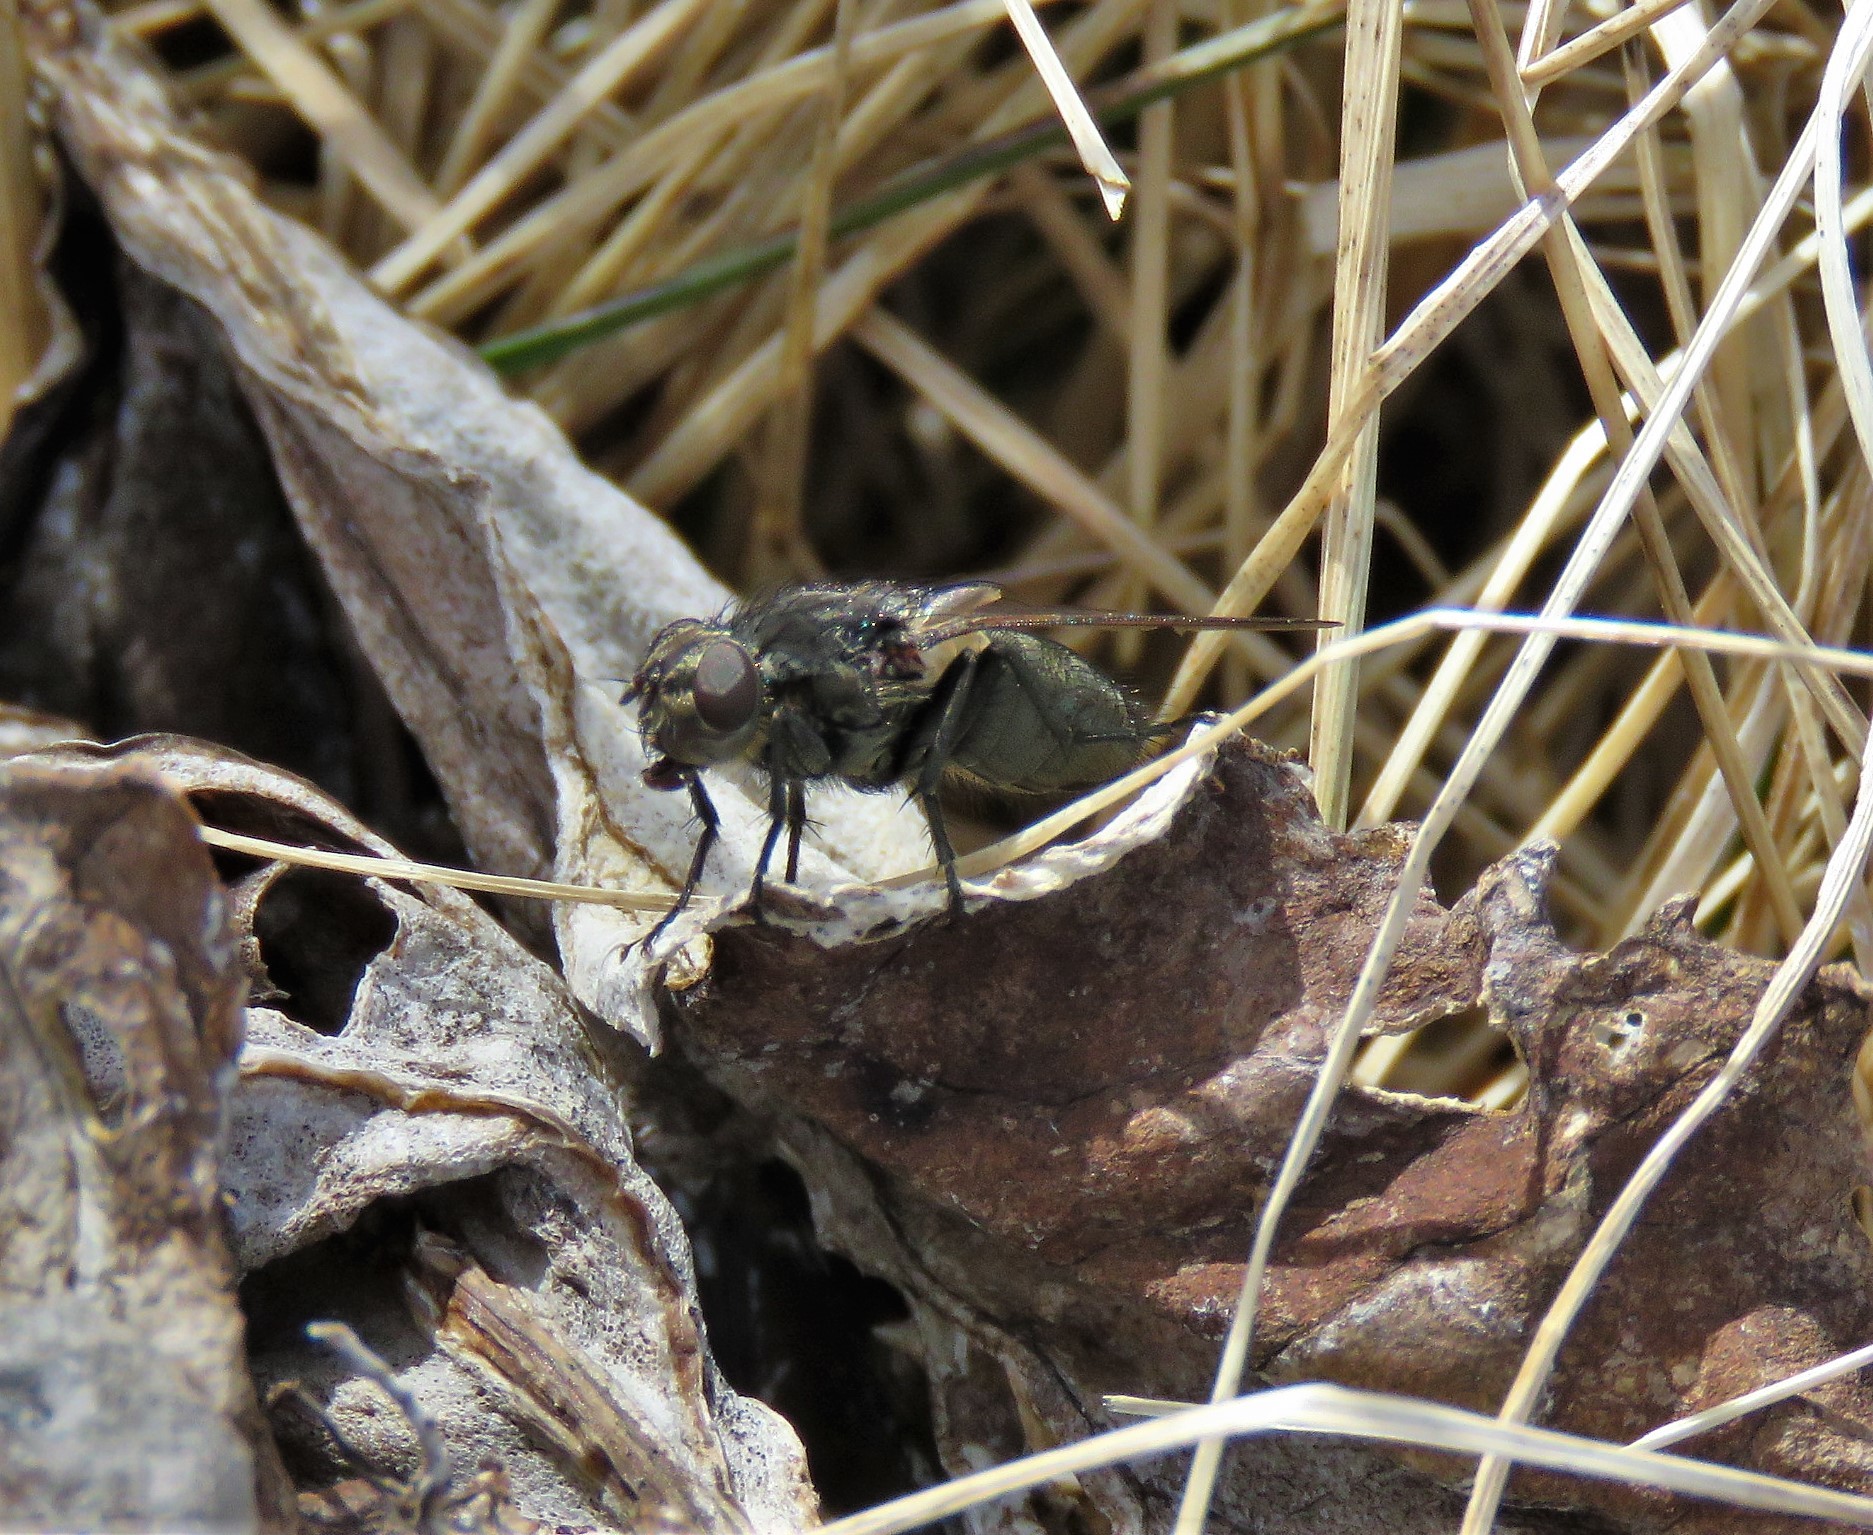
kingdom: Animalia
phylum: Arthropoda
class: Insecta
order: Diptera
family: Polleniidae
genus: Pollenia
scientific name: Pollenia
